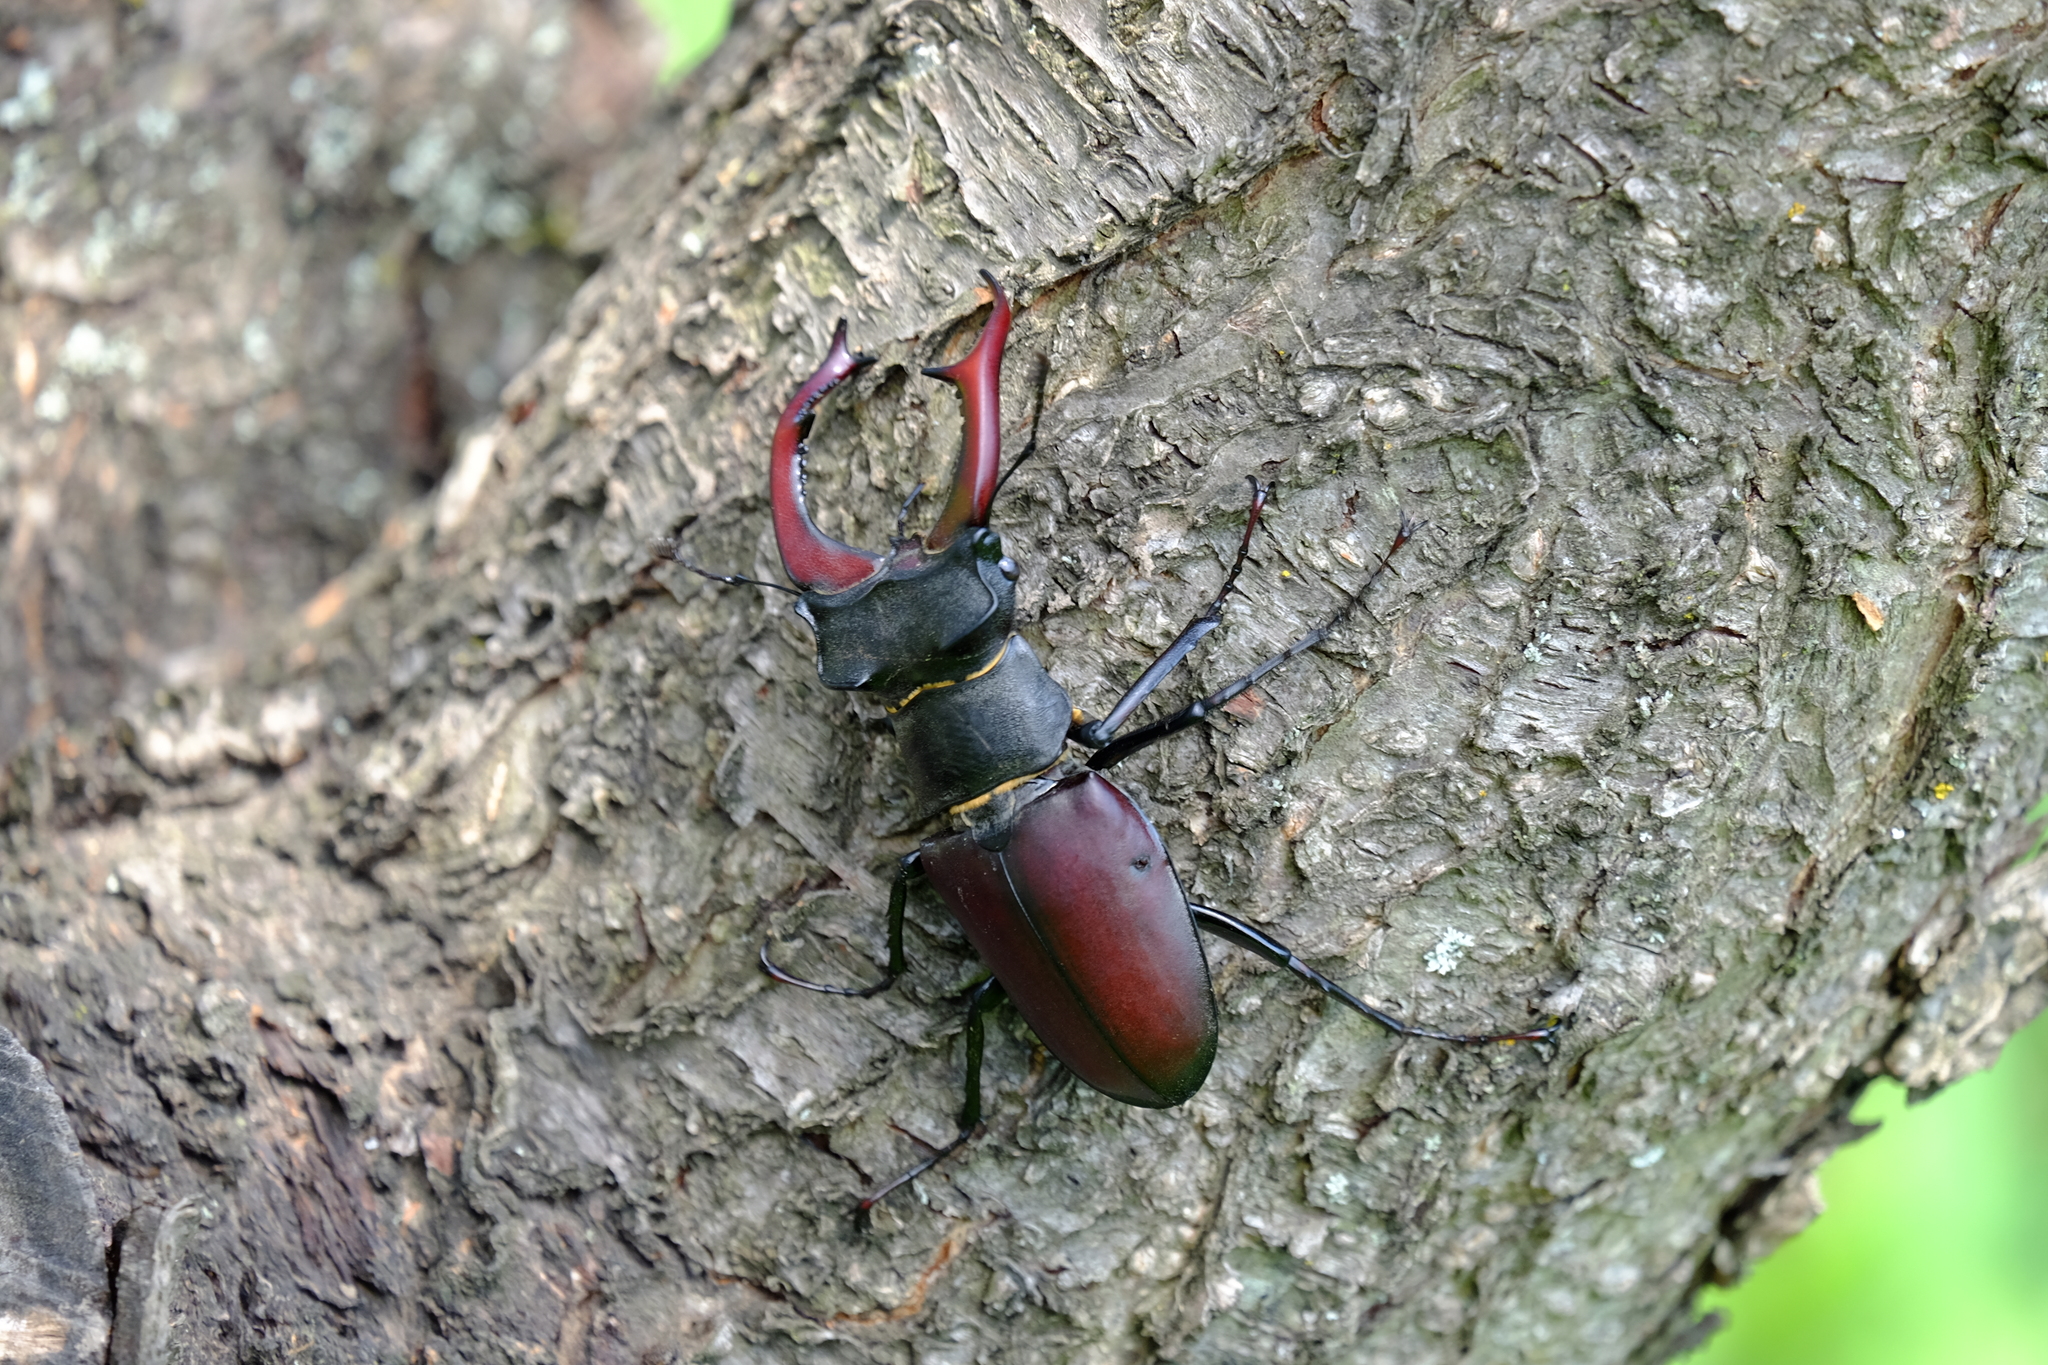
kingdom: Animalia
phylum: Arthropoda
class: Insecta
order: Coleoptera
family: Lucanidae
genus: Lucanus
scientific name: Lucanus cervus
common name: Stag beetle
